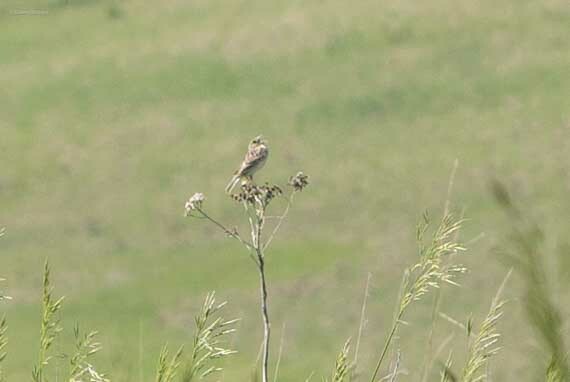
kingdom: Animalia
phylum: Chordata
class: Aves
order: Passeriformes
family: Passerellidae
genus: Ammodramus
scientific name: Ammodramus savannarum
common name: Grasshopper sparrow
